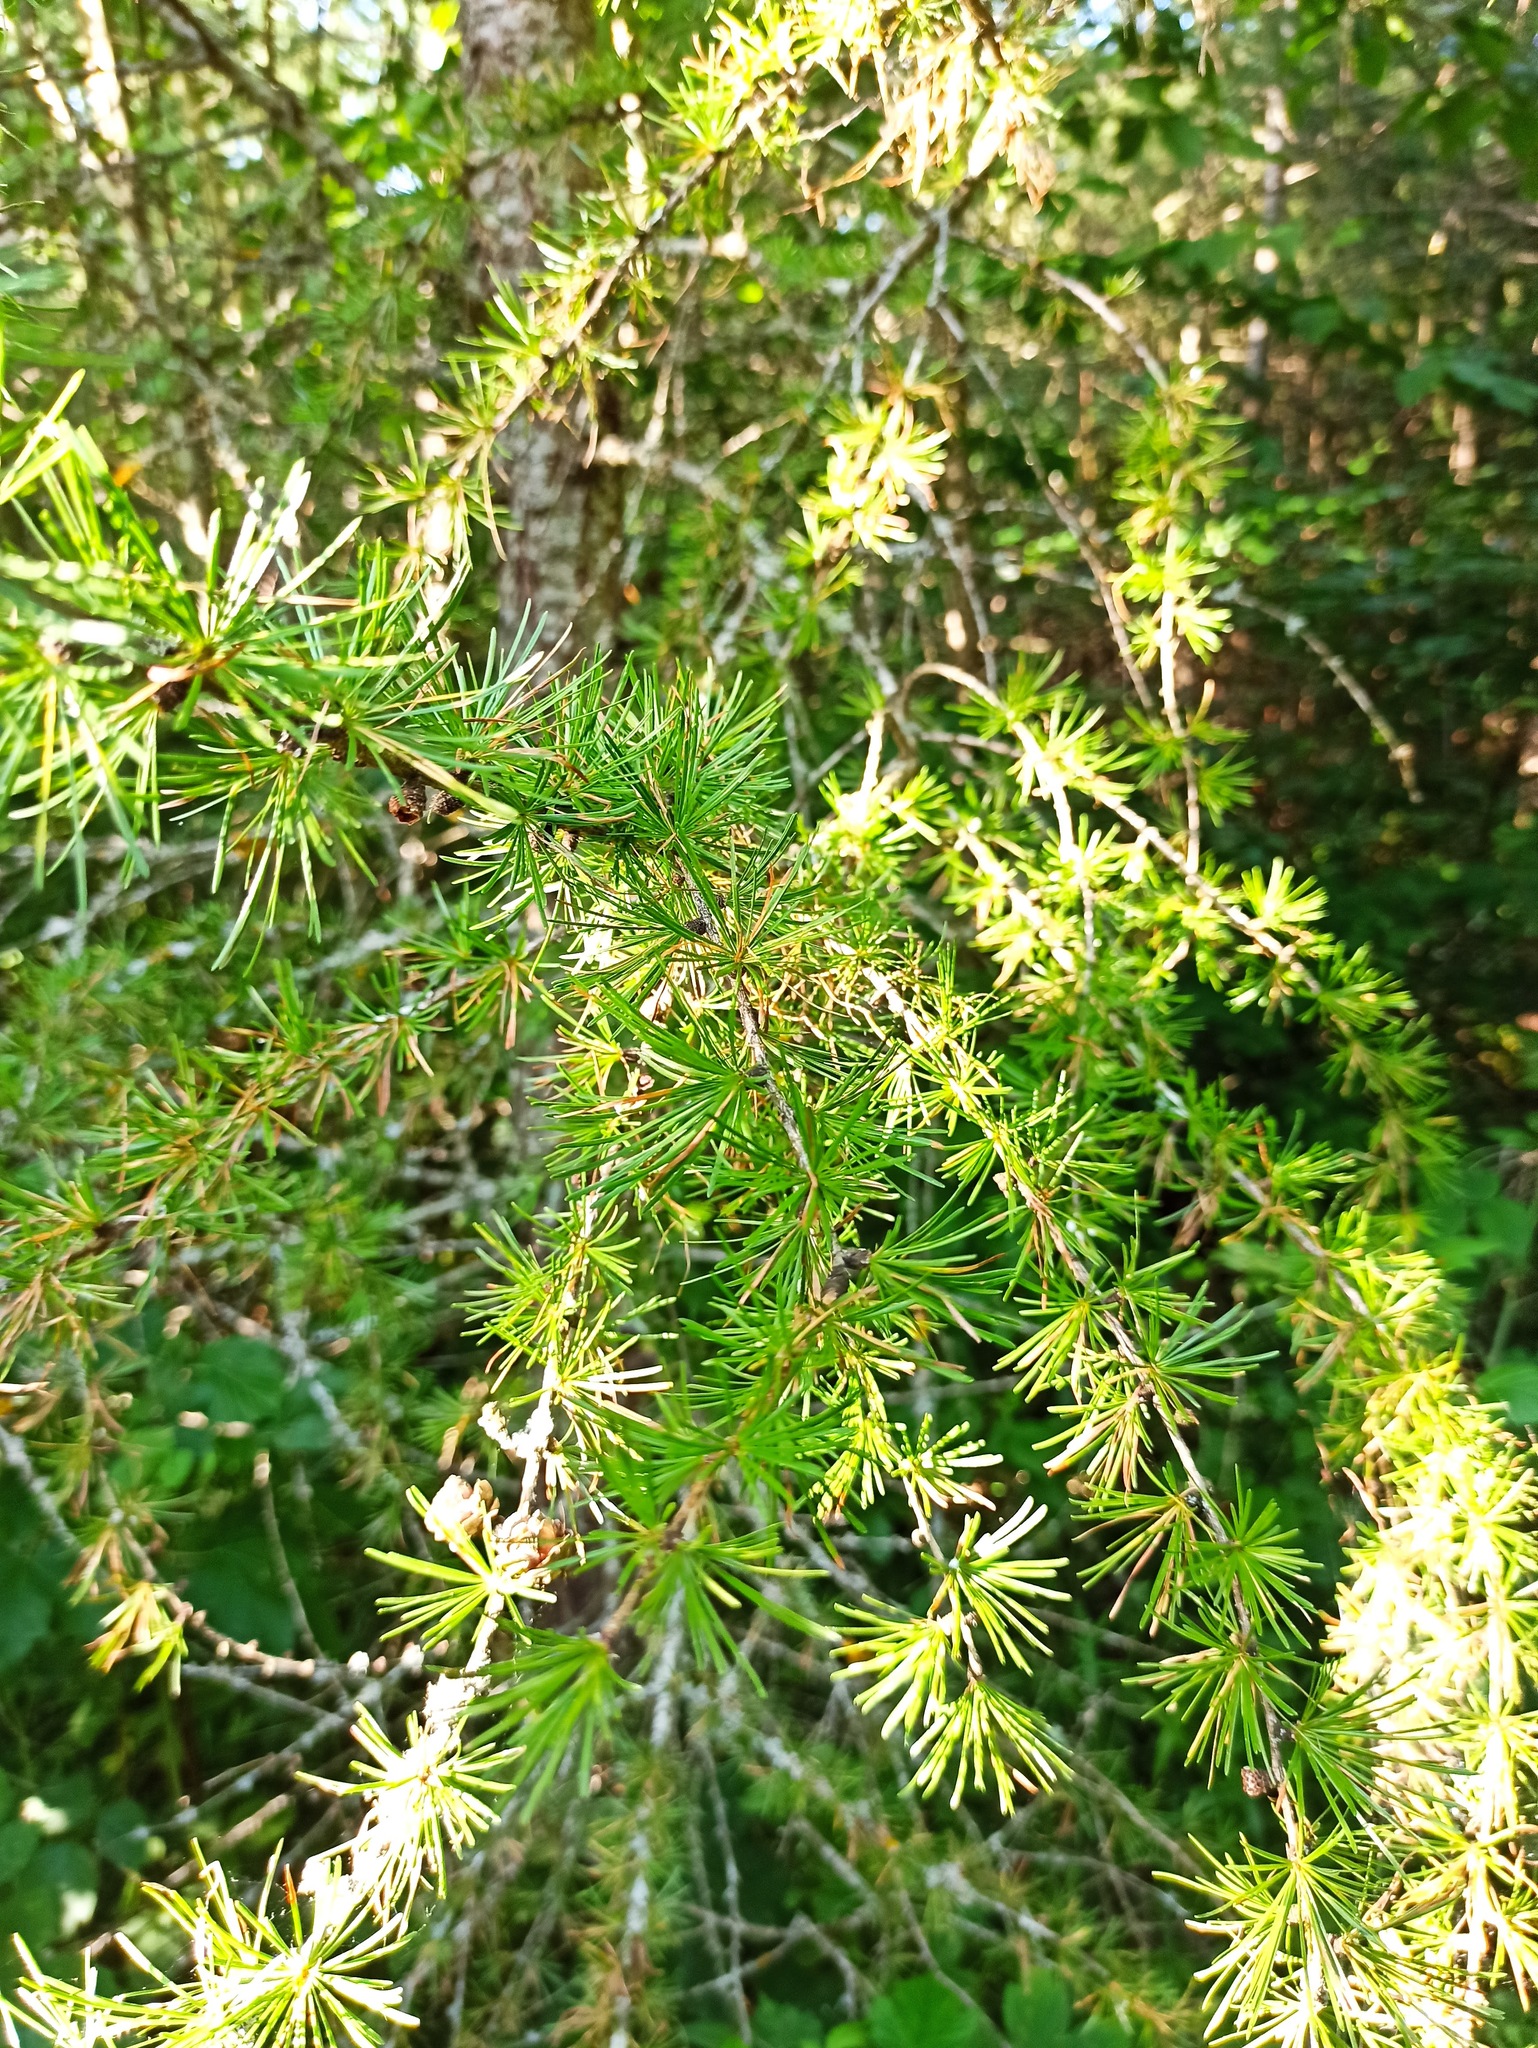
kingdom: Plantae
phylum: Tracheophyta
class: Pinopsida
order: Pinales
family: Pinaceae
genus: Larix
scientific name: Larix decidua
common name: European larch
